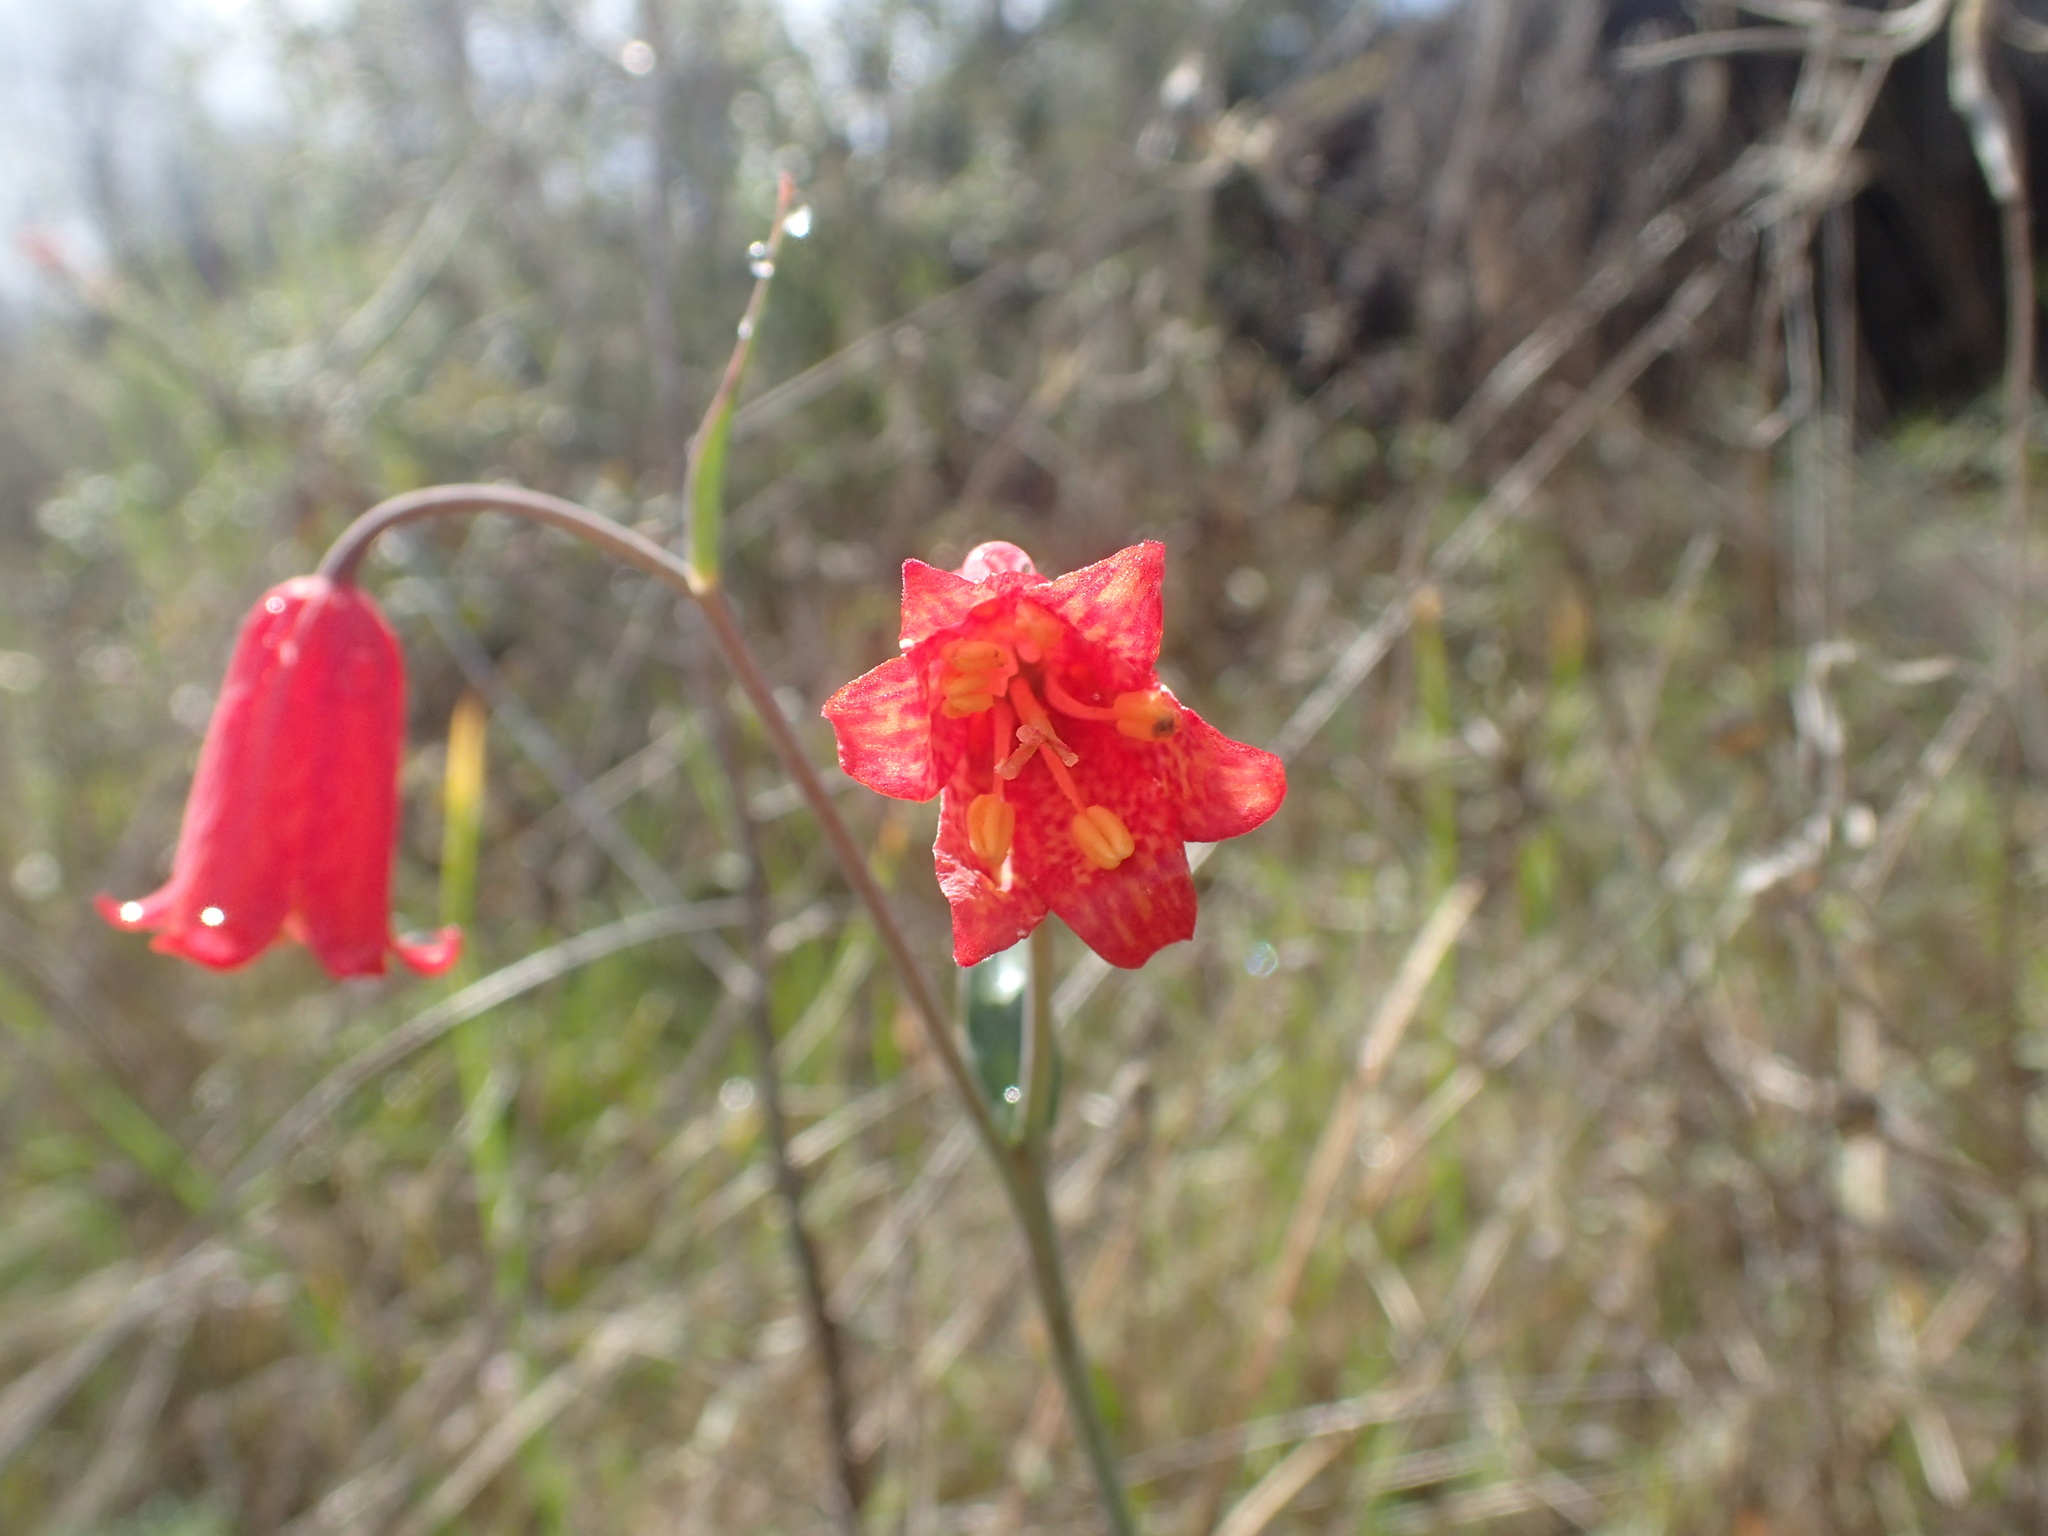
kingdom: Plantae
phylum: Tracheophyta
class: Liliopsida
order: Liliales
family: Liliaceae
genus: Fritillaria
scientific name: Fritillaria recurva
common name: Scarlet fritillary
